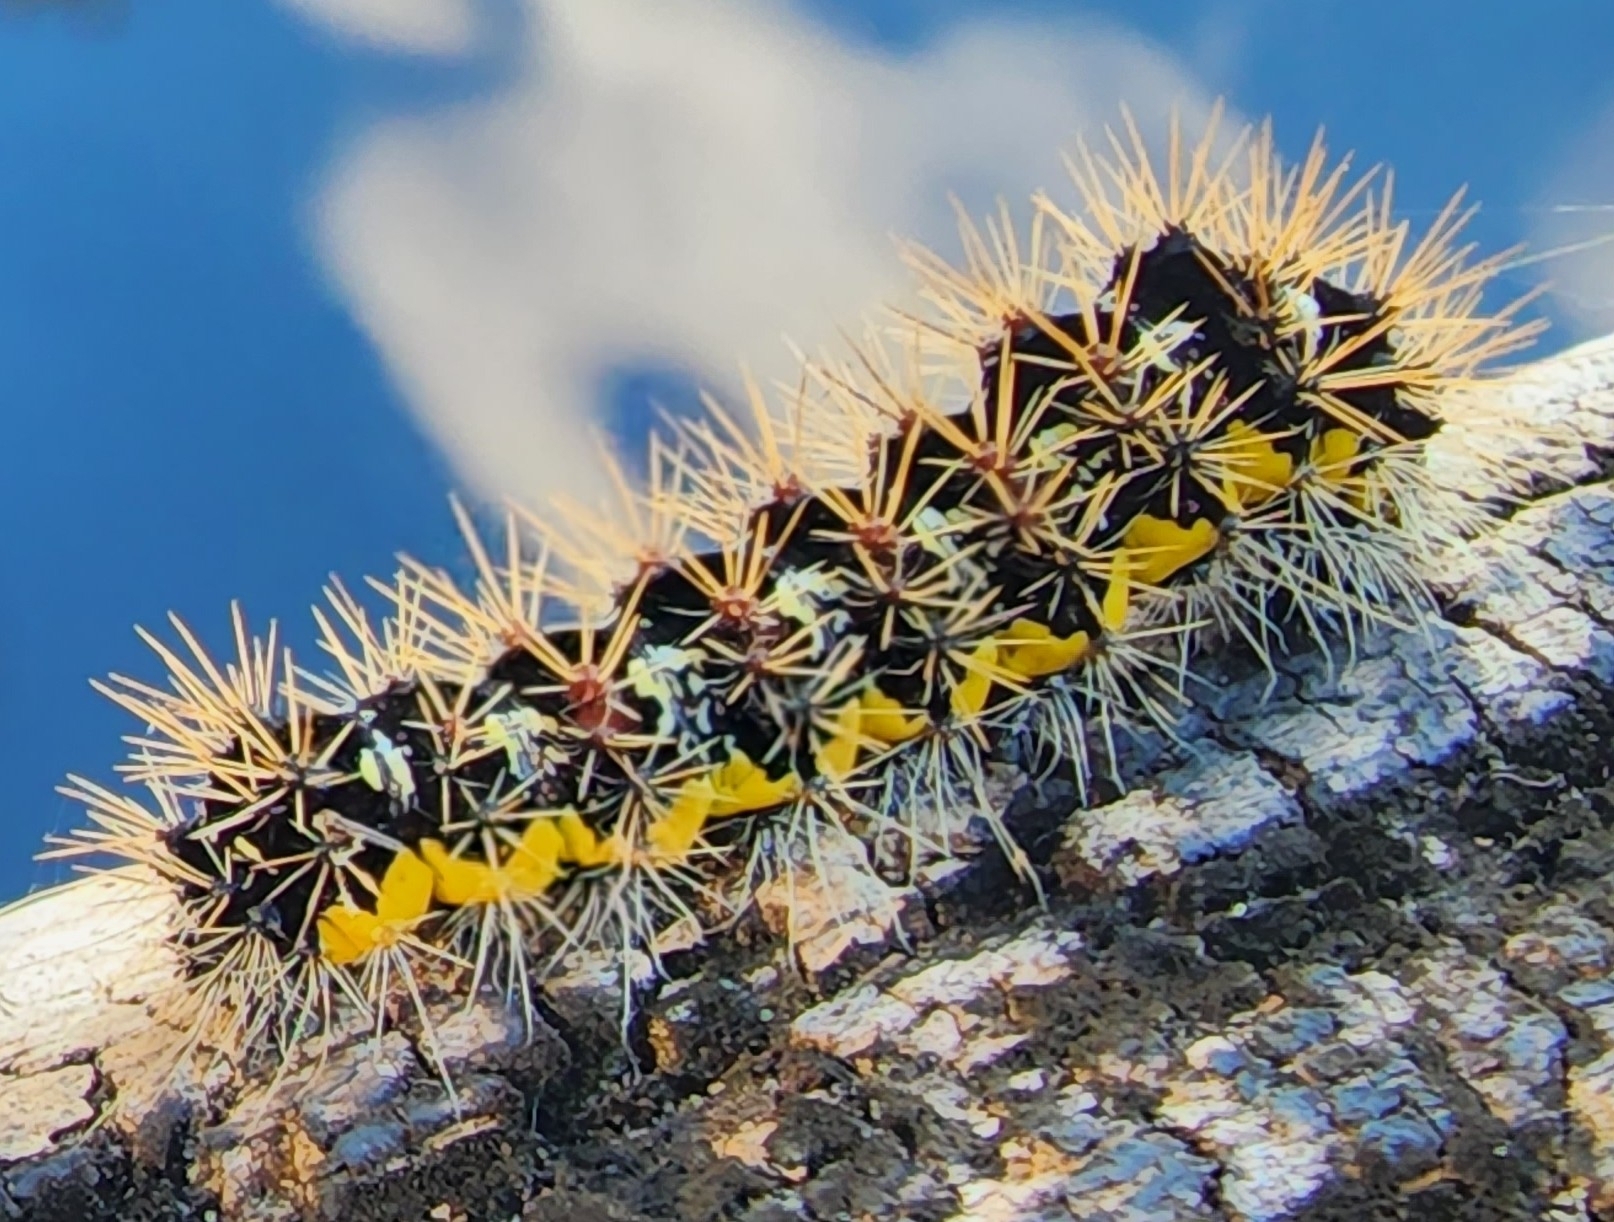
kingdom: Animalia
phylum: Arthropoda
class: Insecta
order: Lepidoptera
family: Noctuidae
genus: Acronicta
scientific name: Acronicta oblinita
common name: Smeared dagger
